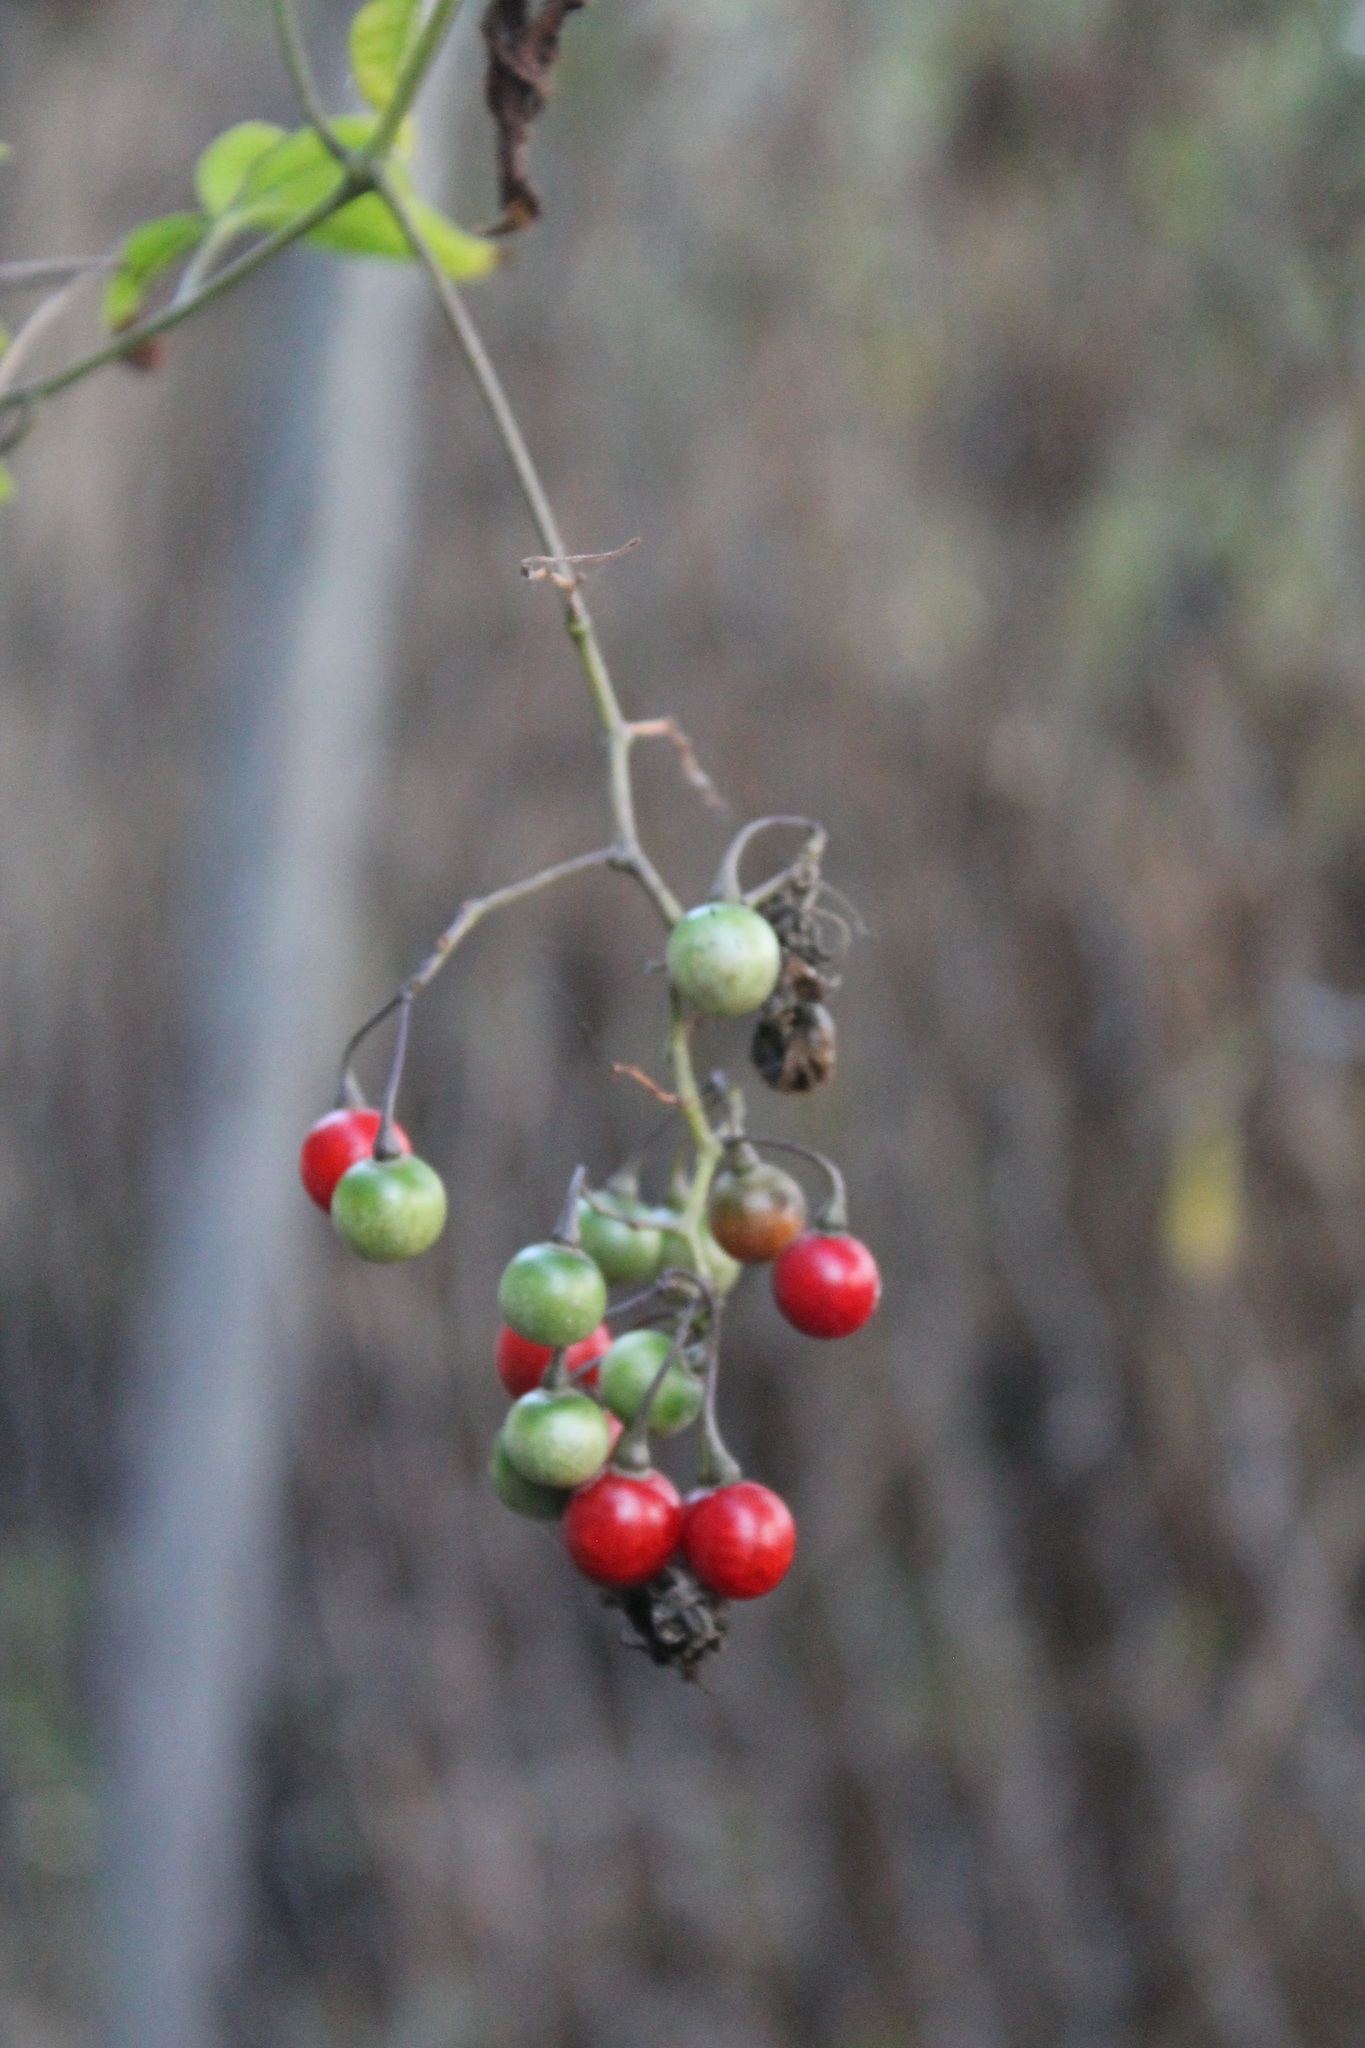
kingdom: Plantae
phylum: Tracheophyta
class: Magnoliopsida
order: Solanales
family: Solanaceae
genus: Solanum
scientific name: Solanum seaforthianum
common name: Brazilian nightshade
